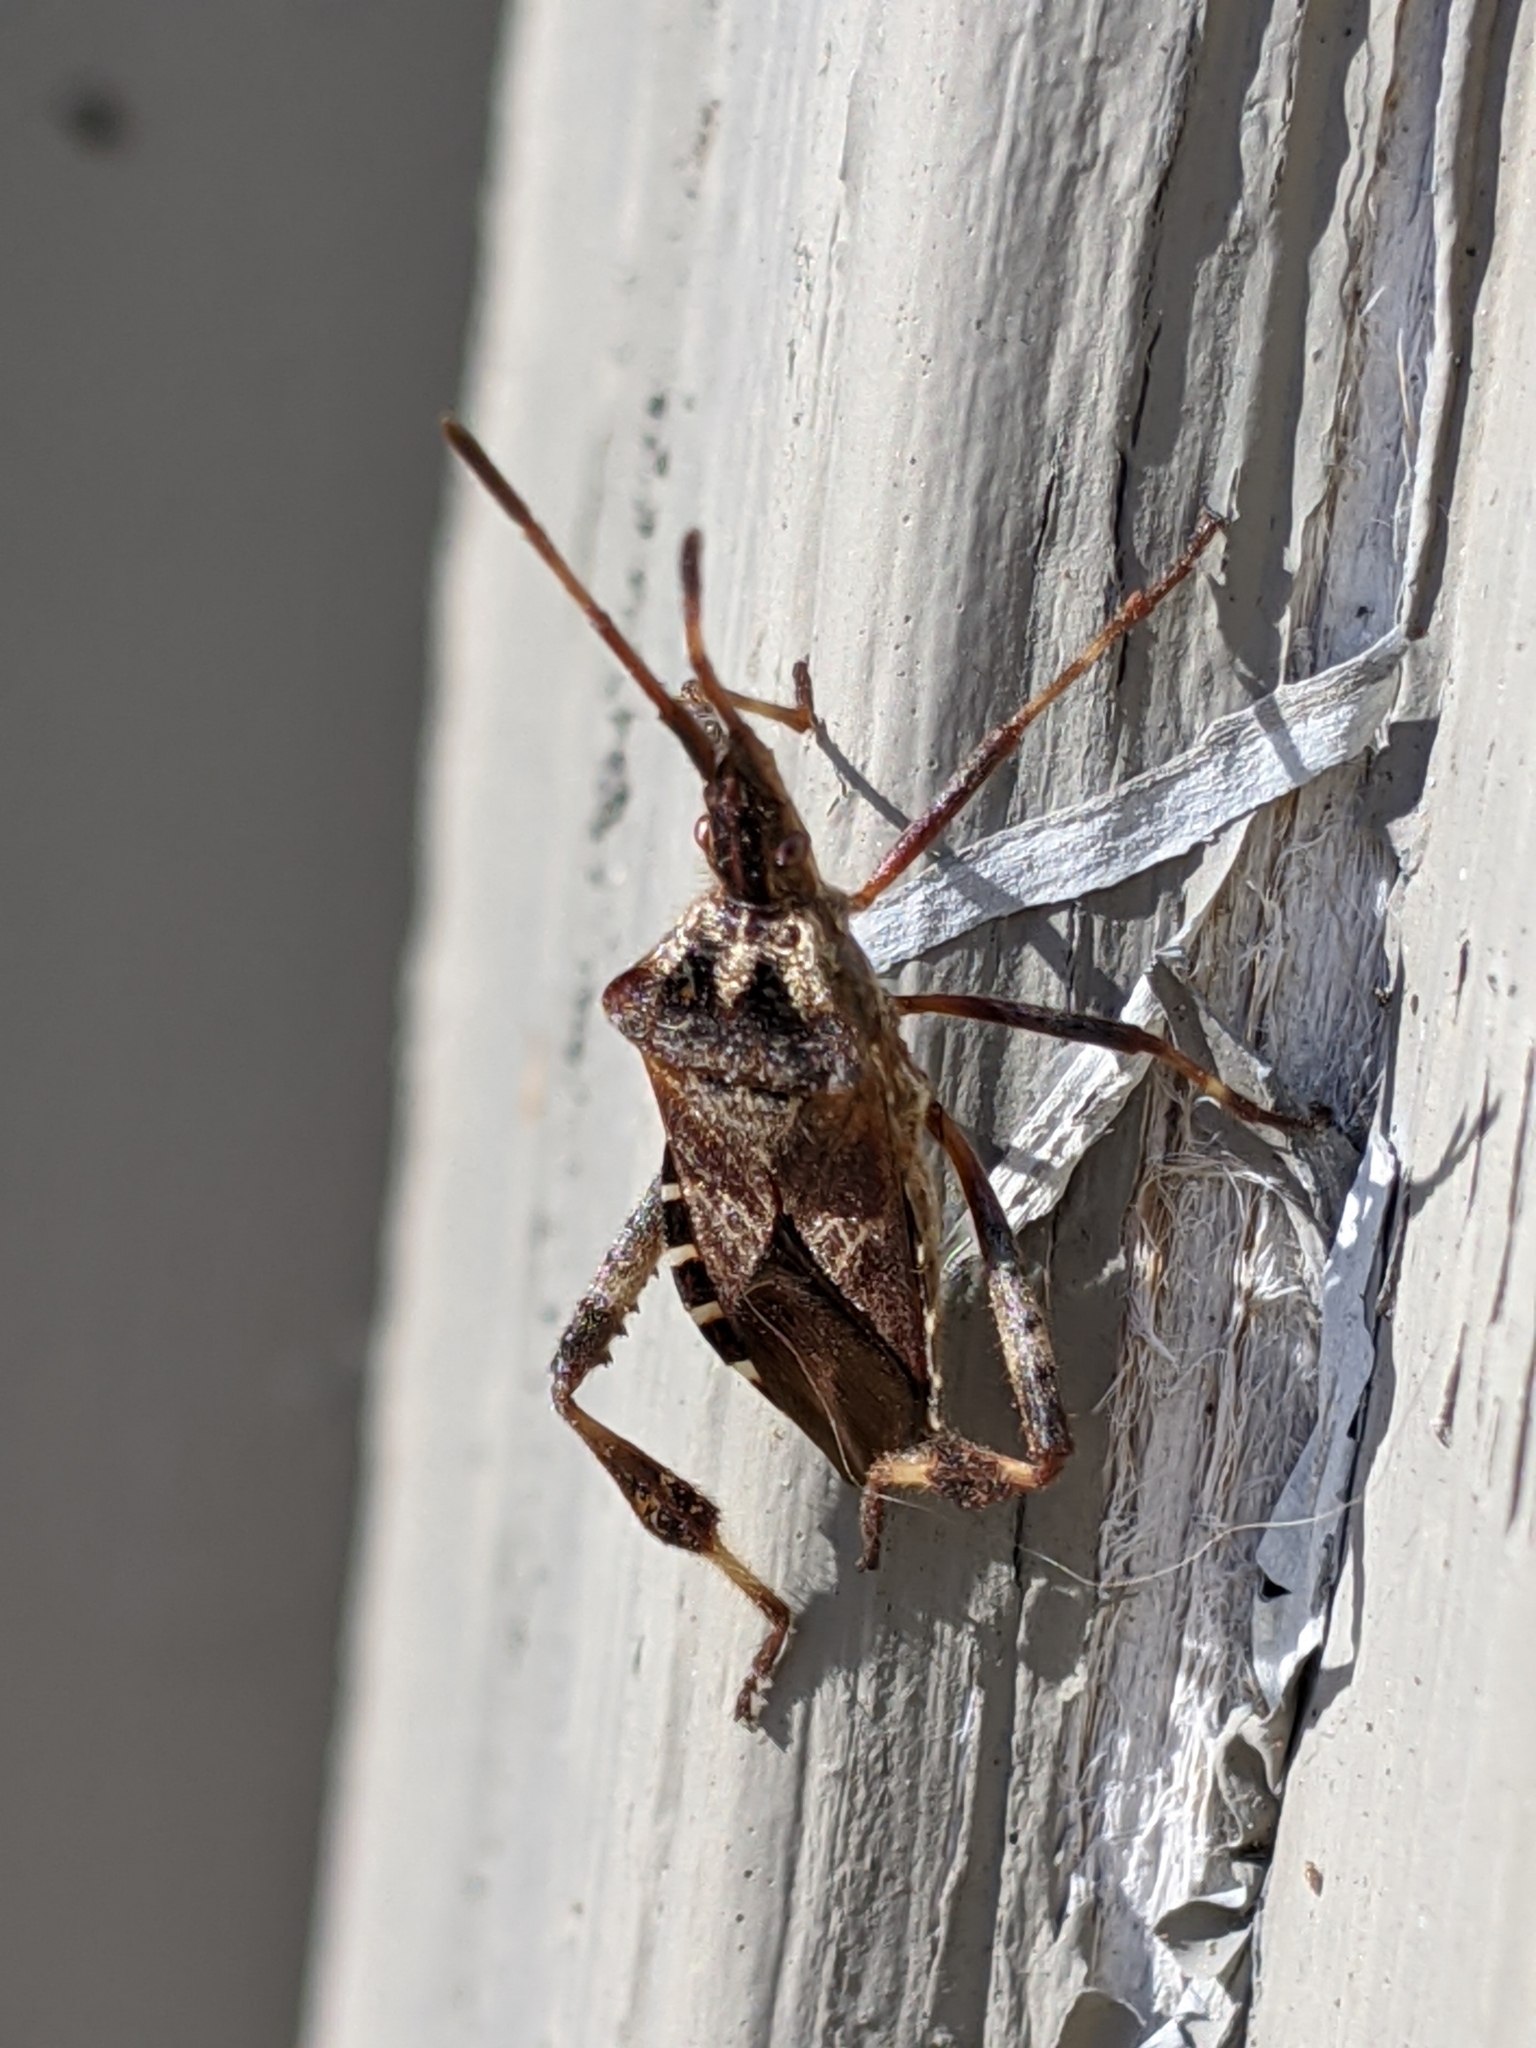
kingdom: Animalia
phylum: Arthropoda
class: Insecta
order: Hemiptera
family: Coreidae
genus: Leptoglossus
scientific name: Leptoglossus occidentalis
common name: Western conifer-seed bug
